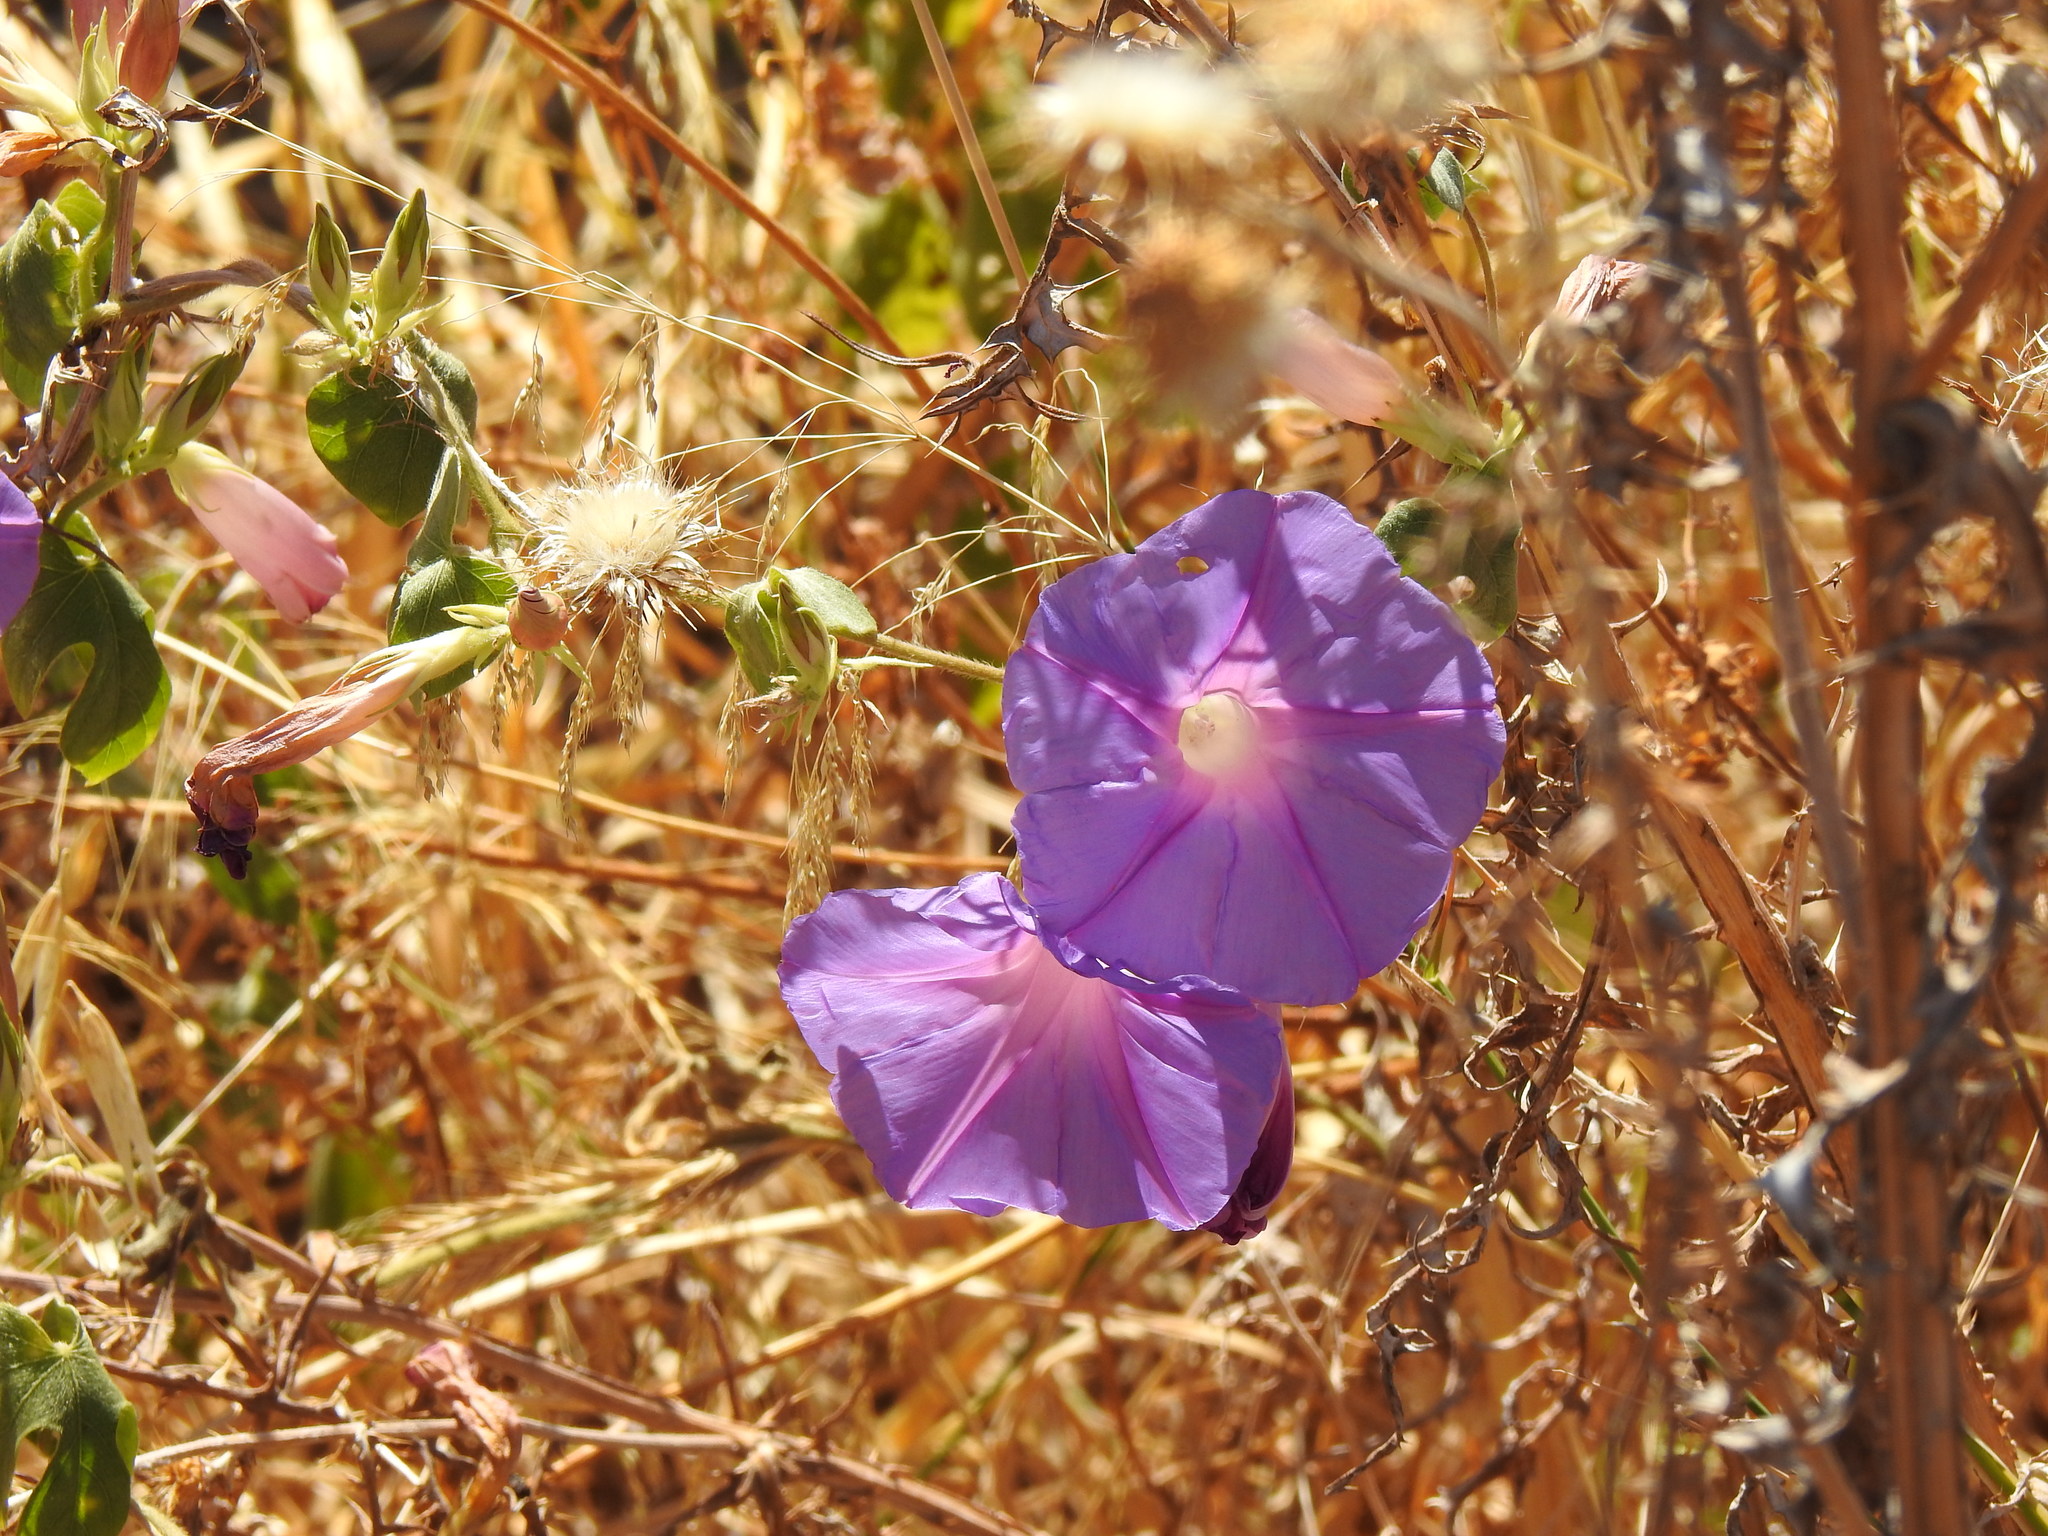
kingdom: Plantae
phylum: Tracheophyta
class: Magnoliopsida
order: Solanales
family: Convolvulaceae
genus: Ipomoea
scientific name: Ipomoea indica
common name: Blue dawnflower
